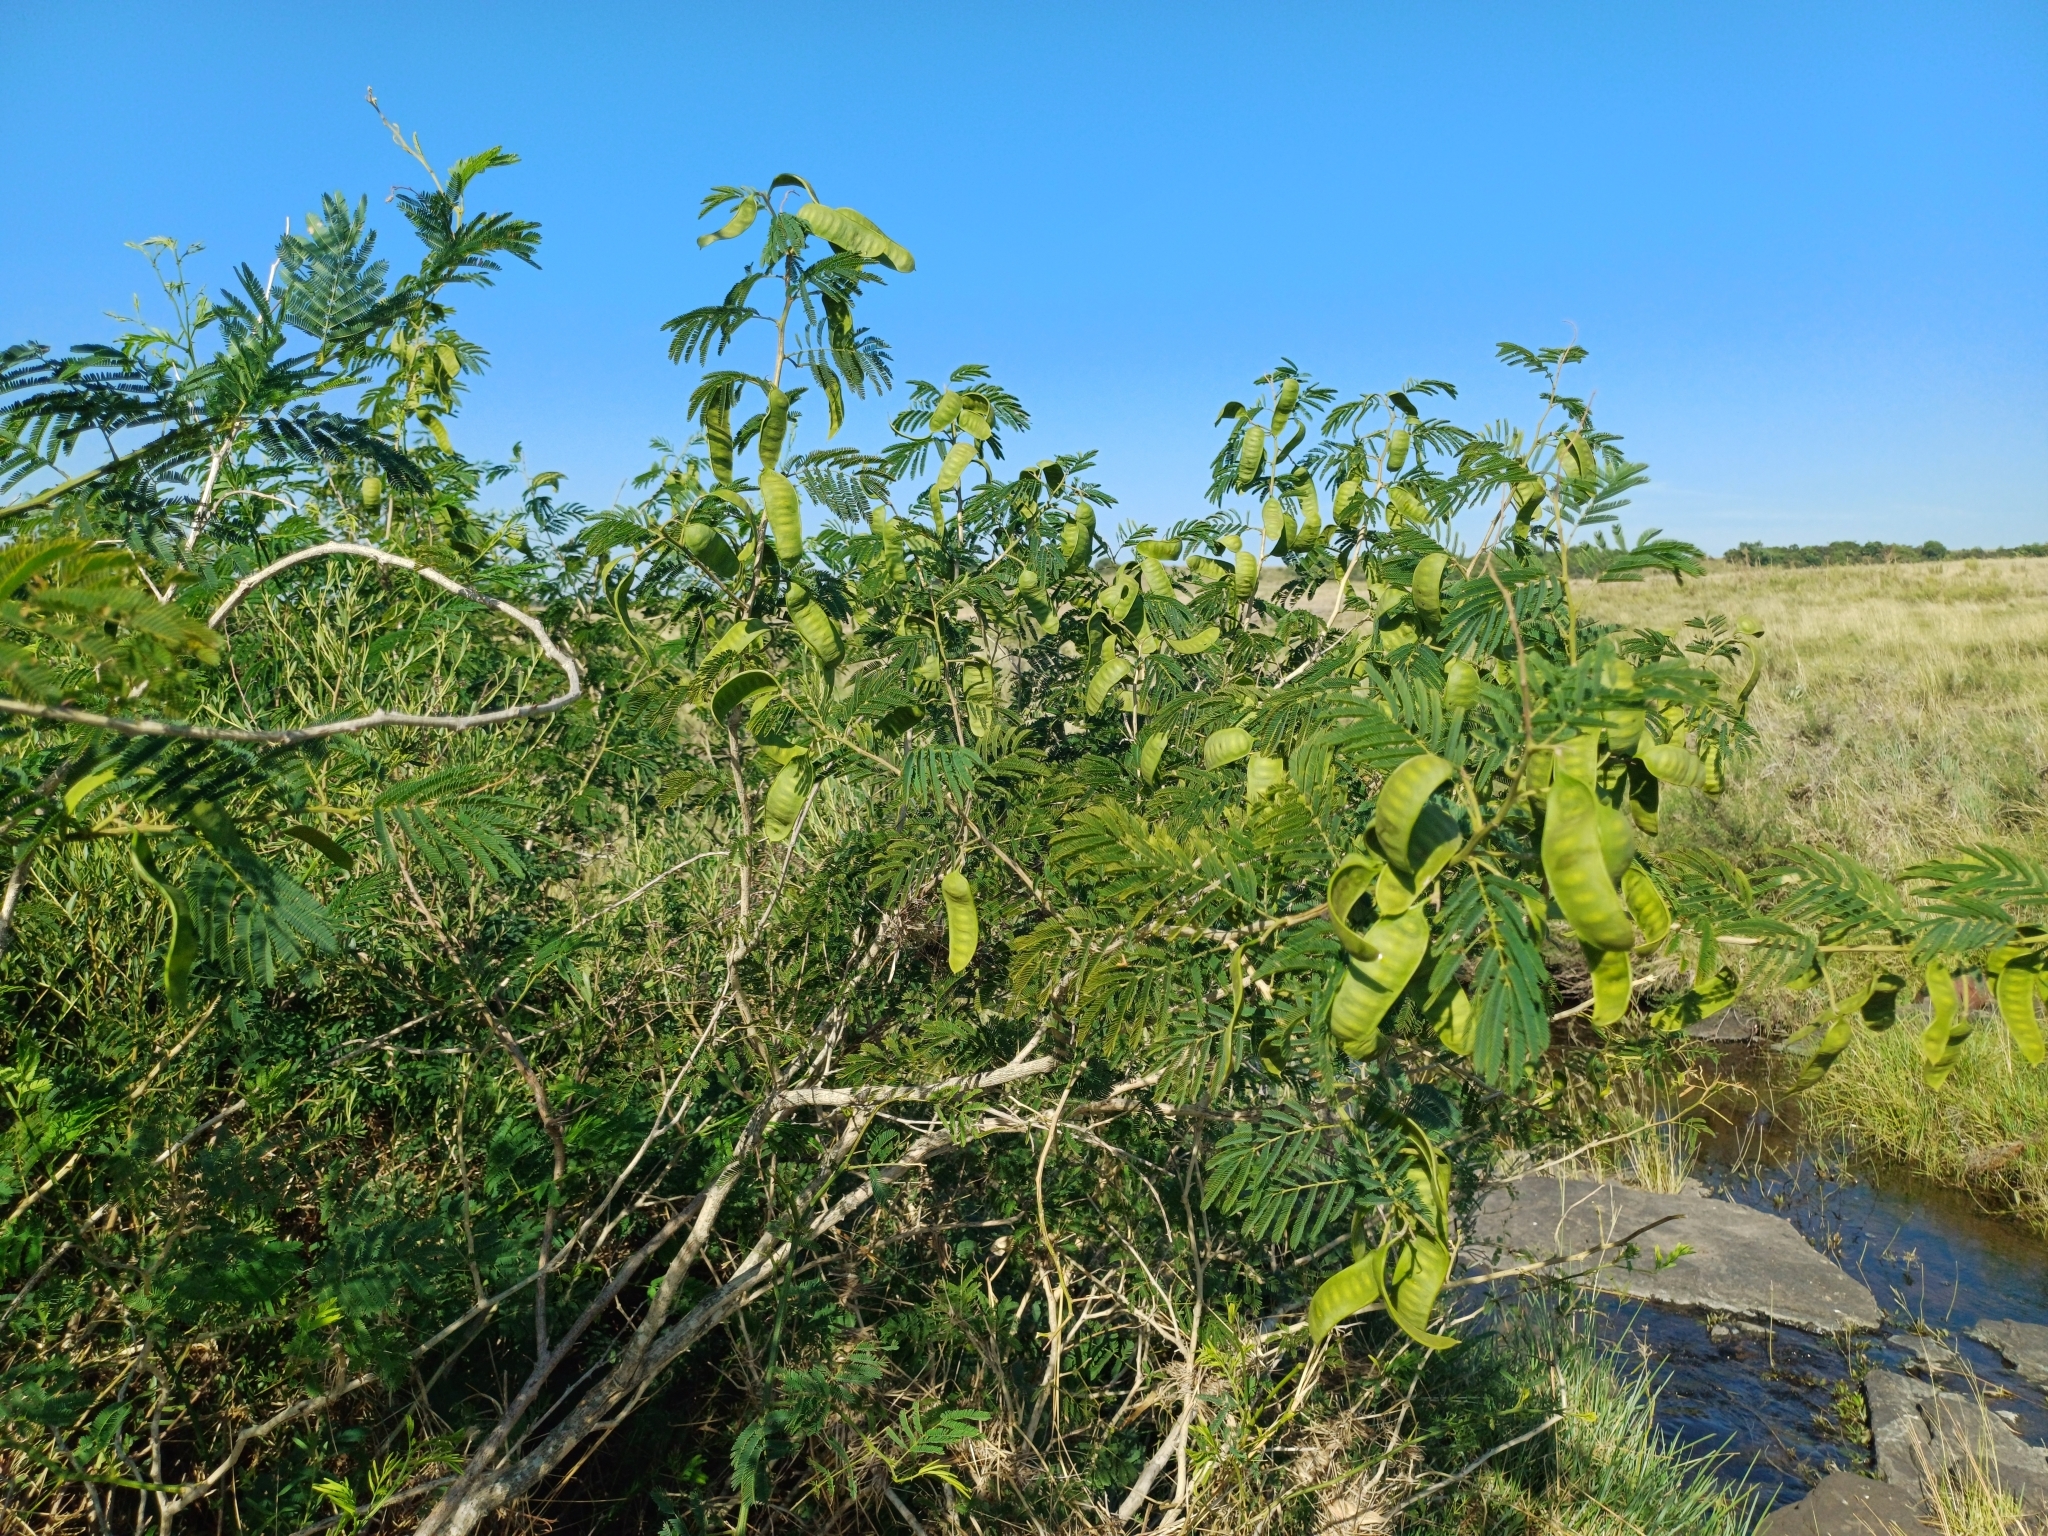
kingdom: Plantae
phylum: Tracheophyta
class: Magnoliopsida
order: Fabales
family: Fabaceae
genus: Senegalia
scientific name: Senegalia bonariensis
